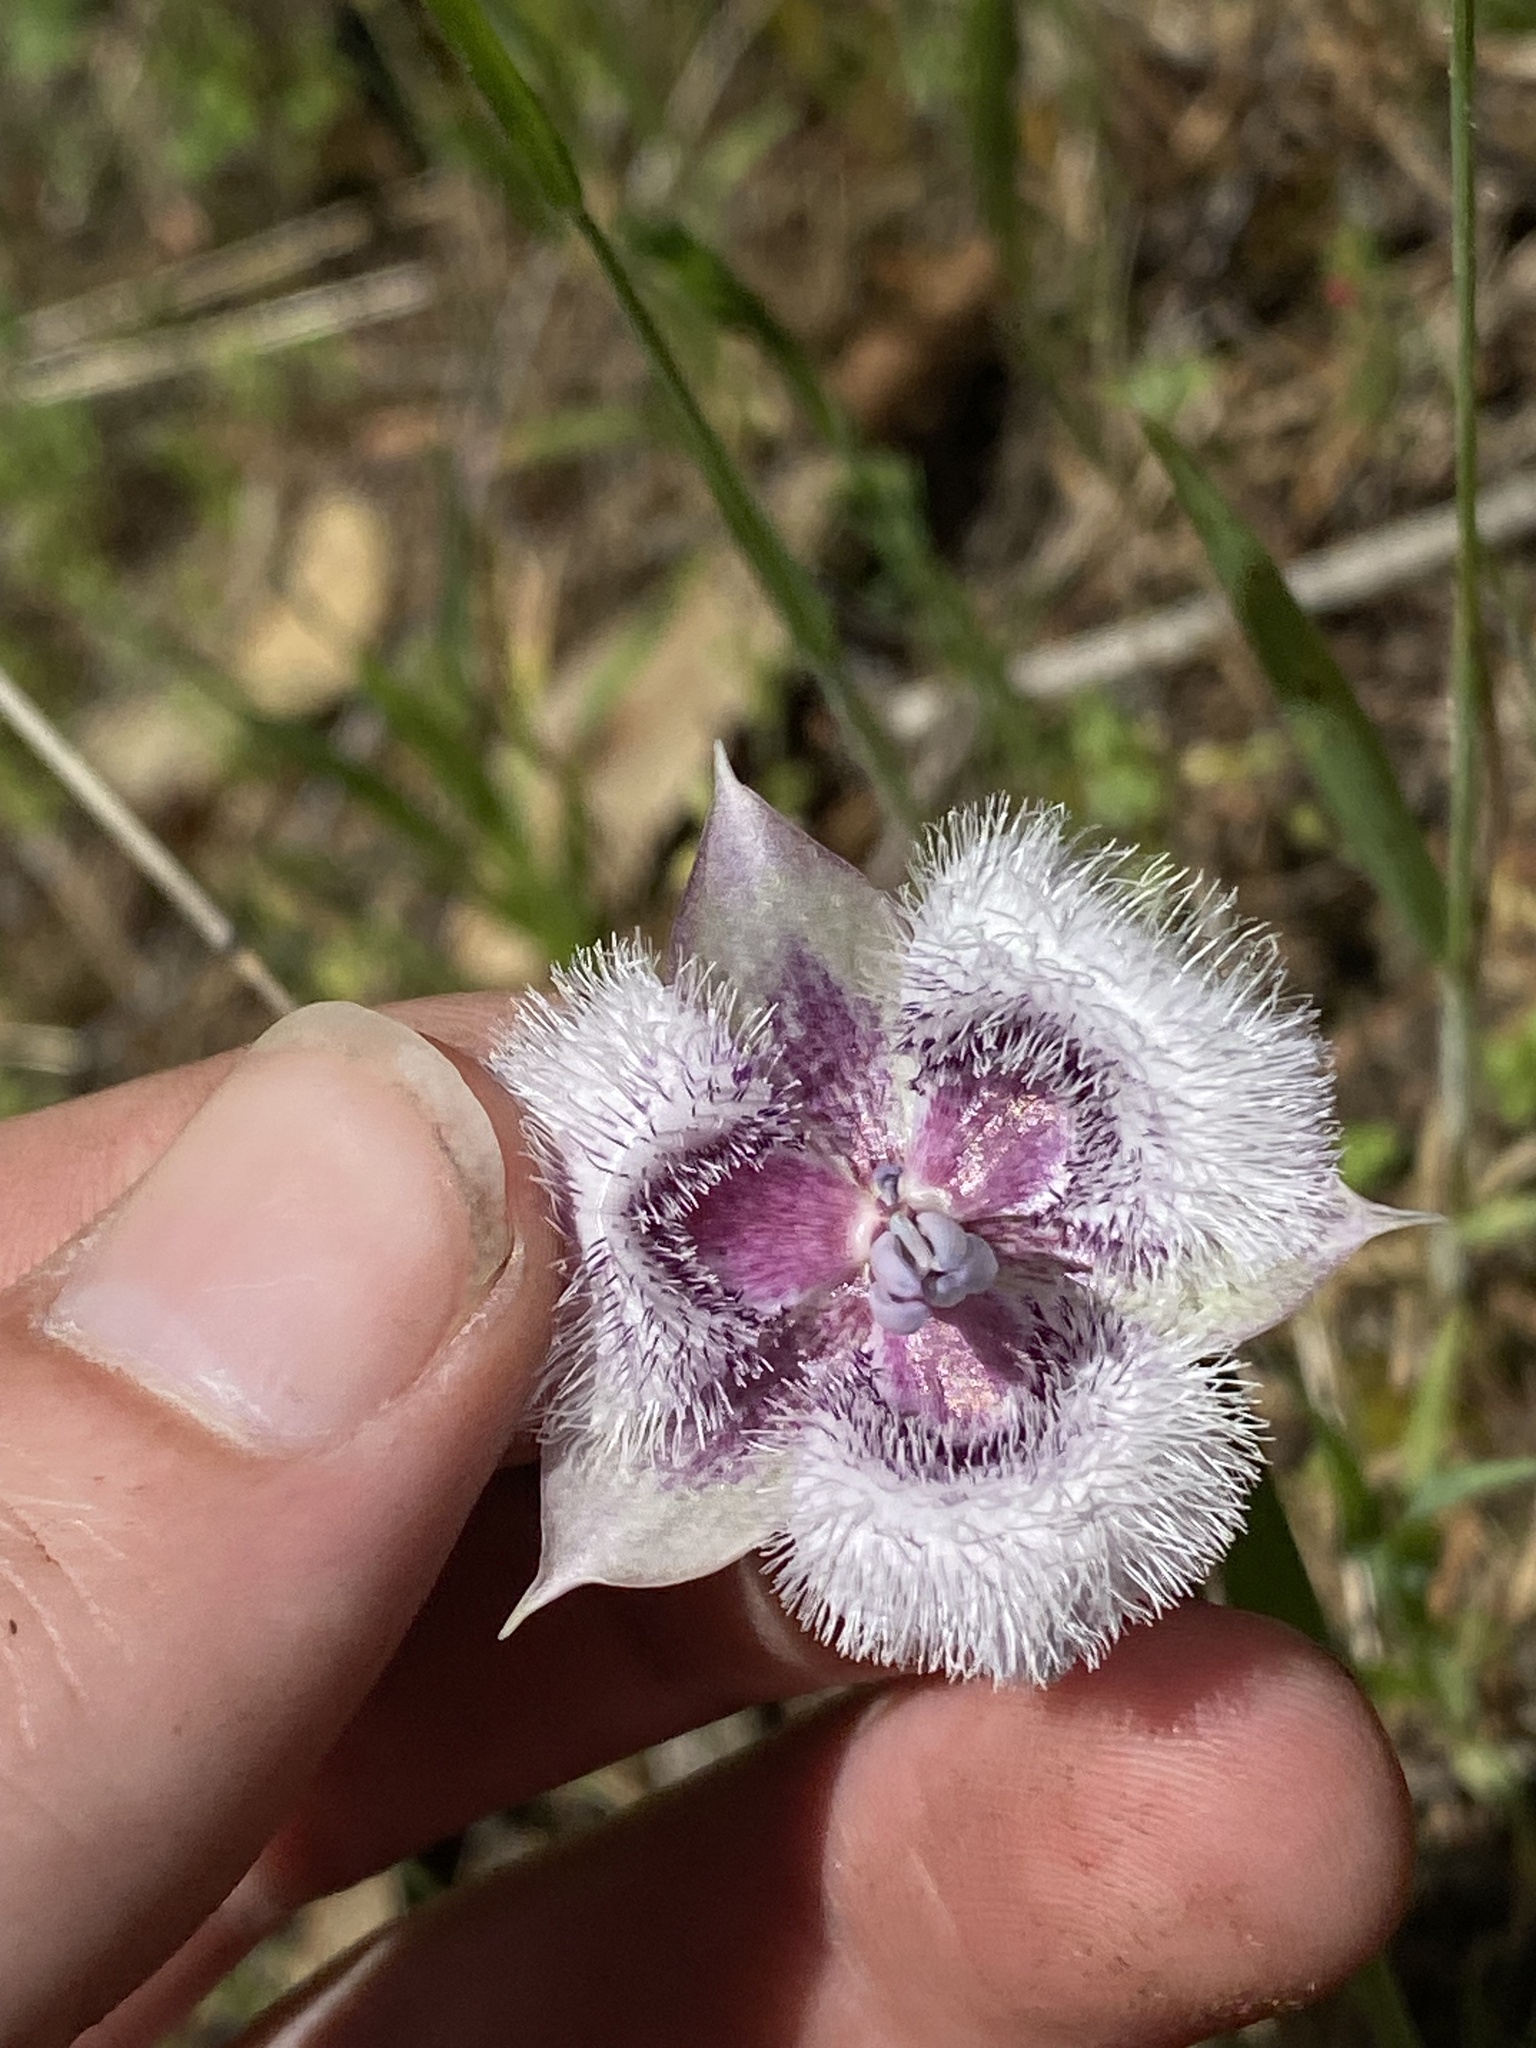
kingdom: Plantae
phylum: Tracheophyta
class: Liliopsida
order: Liliales
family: Liliaceae
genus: Calochortus
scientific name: Calochortus tolmiei
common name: Pussy-ears
